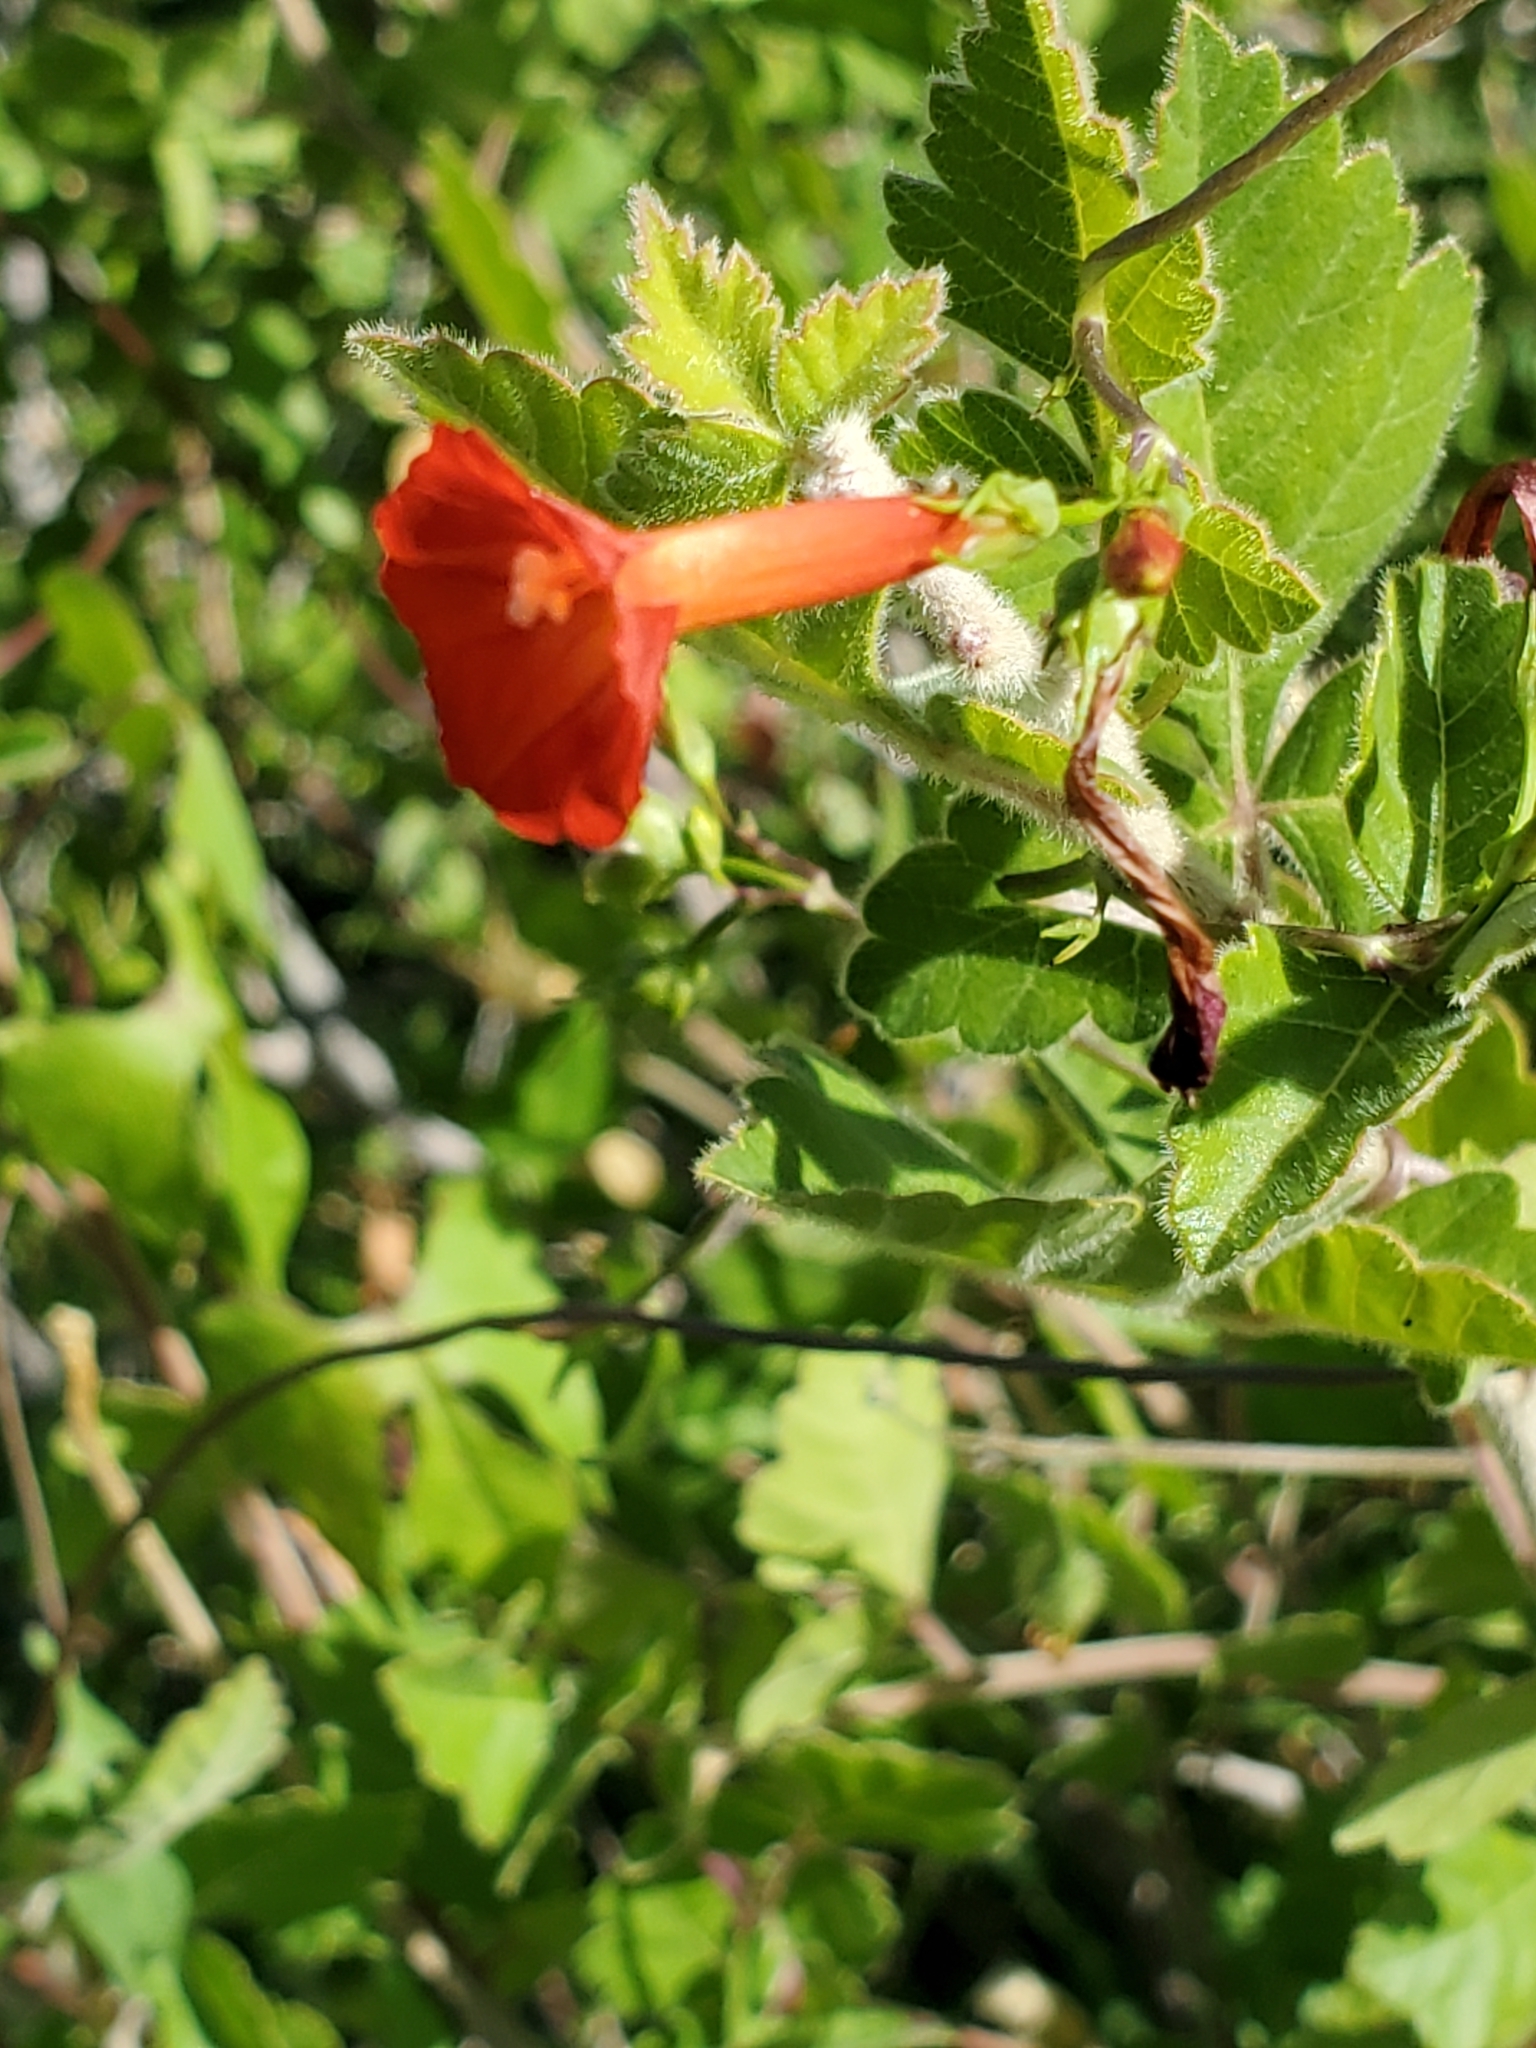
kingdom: Plantae
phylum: Tracheophyta
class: Magnoliopsida
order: Solanales
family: Convolvulaceae
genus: Ipomoea
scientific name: Ipomoea cristulata
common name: Trans-pecos morning-glory
